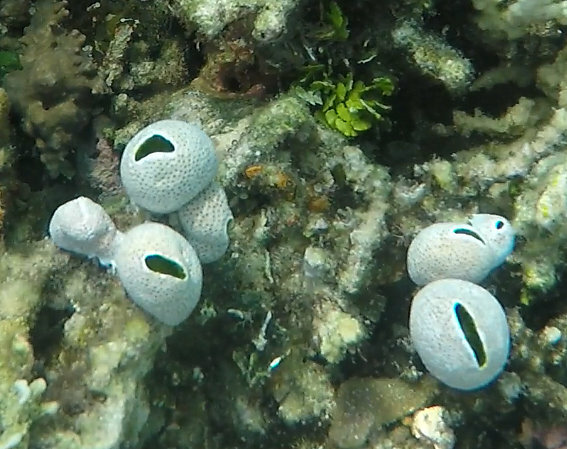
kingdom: Animalia
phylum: Chordata
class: Ascidiacea
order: Aplousobranchia
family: Didemnidae
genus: Didemnum
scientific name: Didemnum molle
